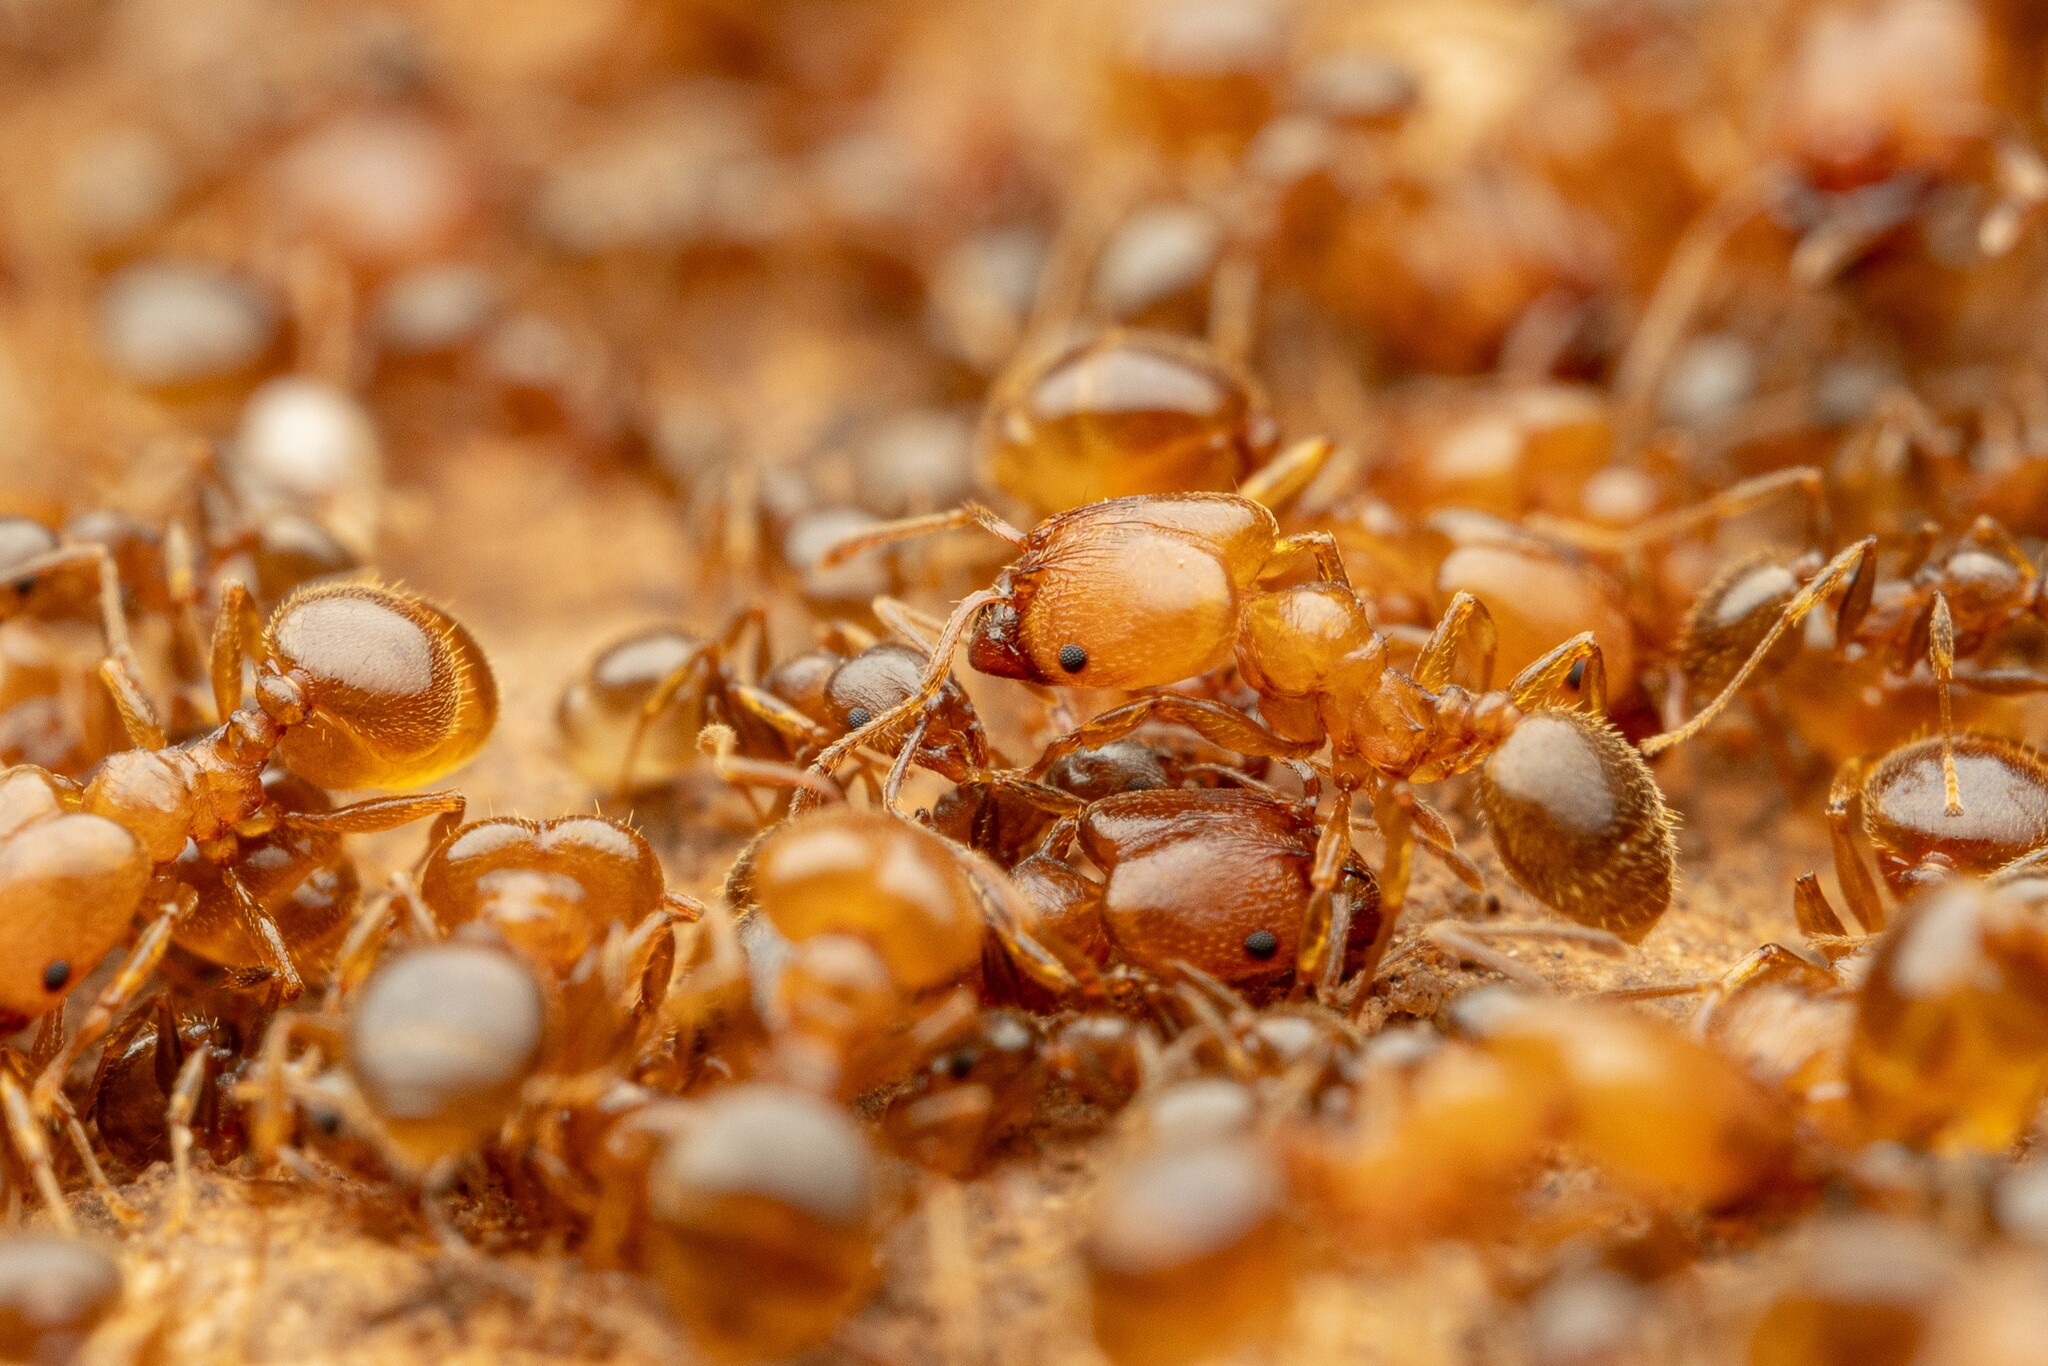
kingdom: Animalia
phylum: Arthropoda
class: Insecta
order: Hymenoptera
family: Formicidae
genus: Pheidole
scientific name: Pheidole diversipilosa
